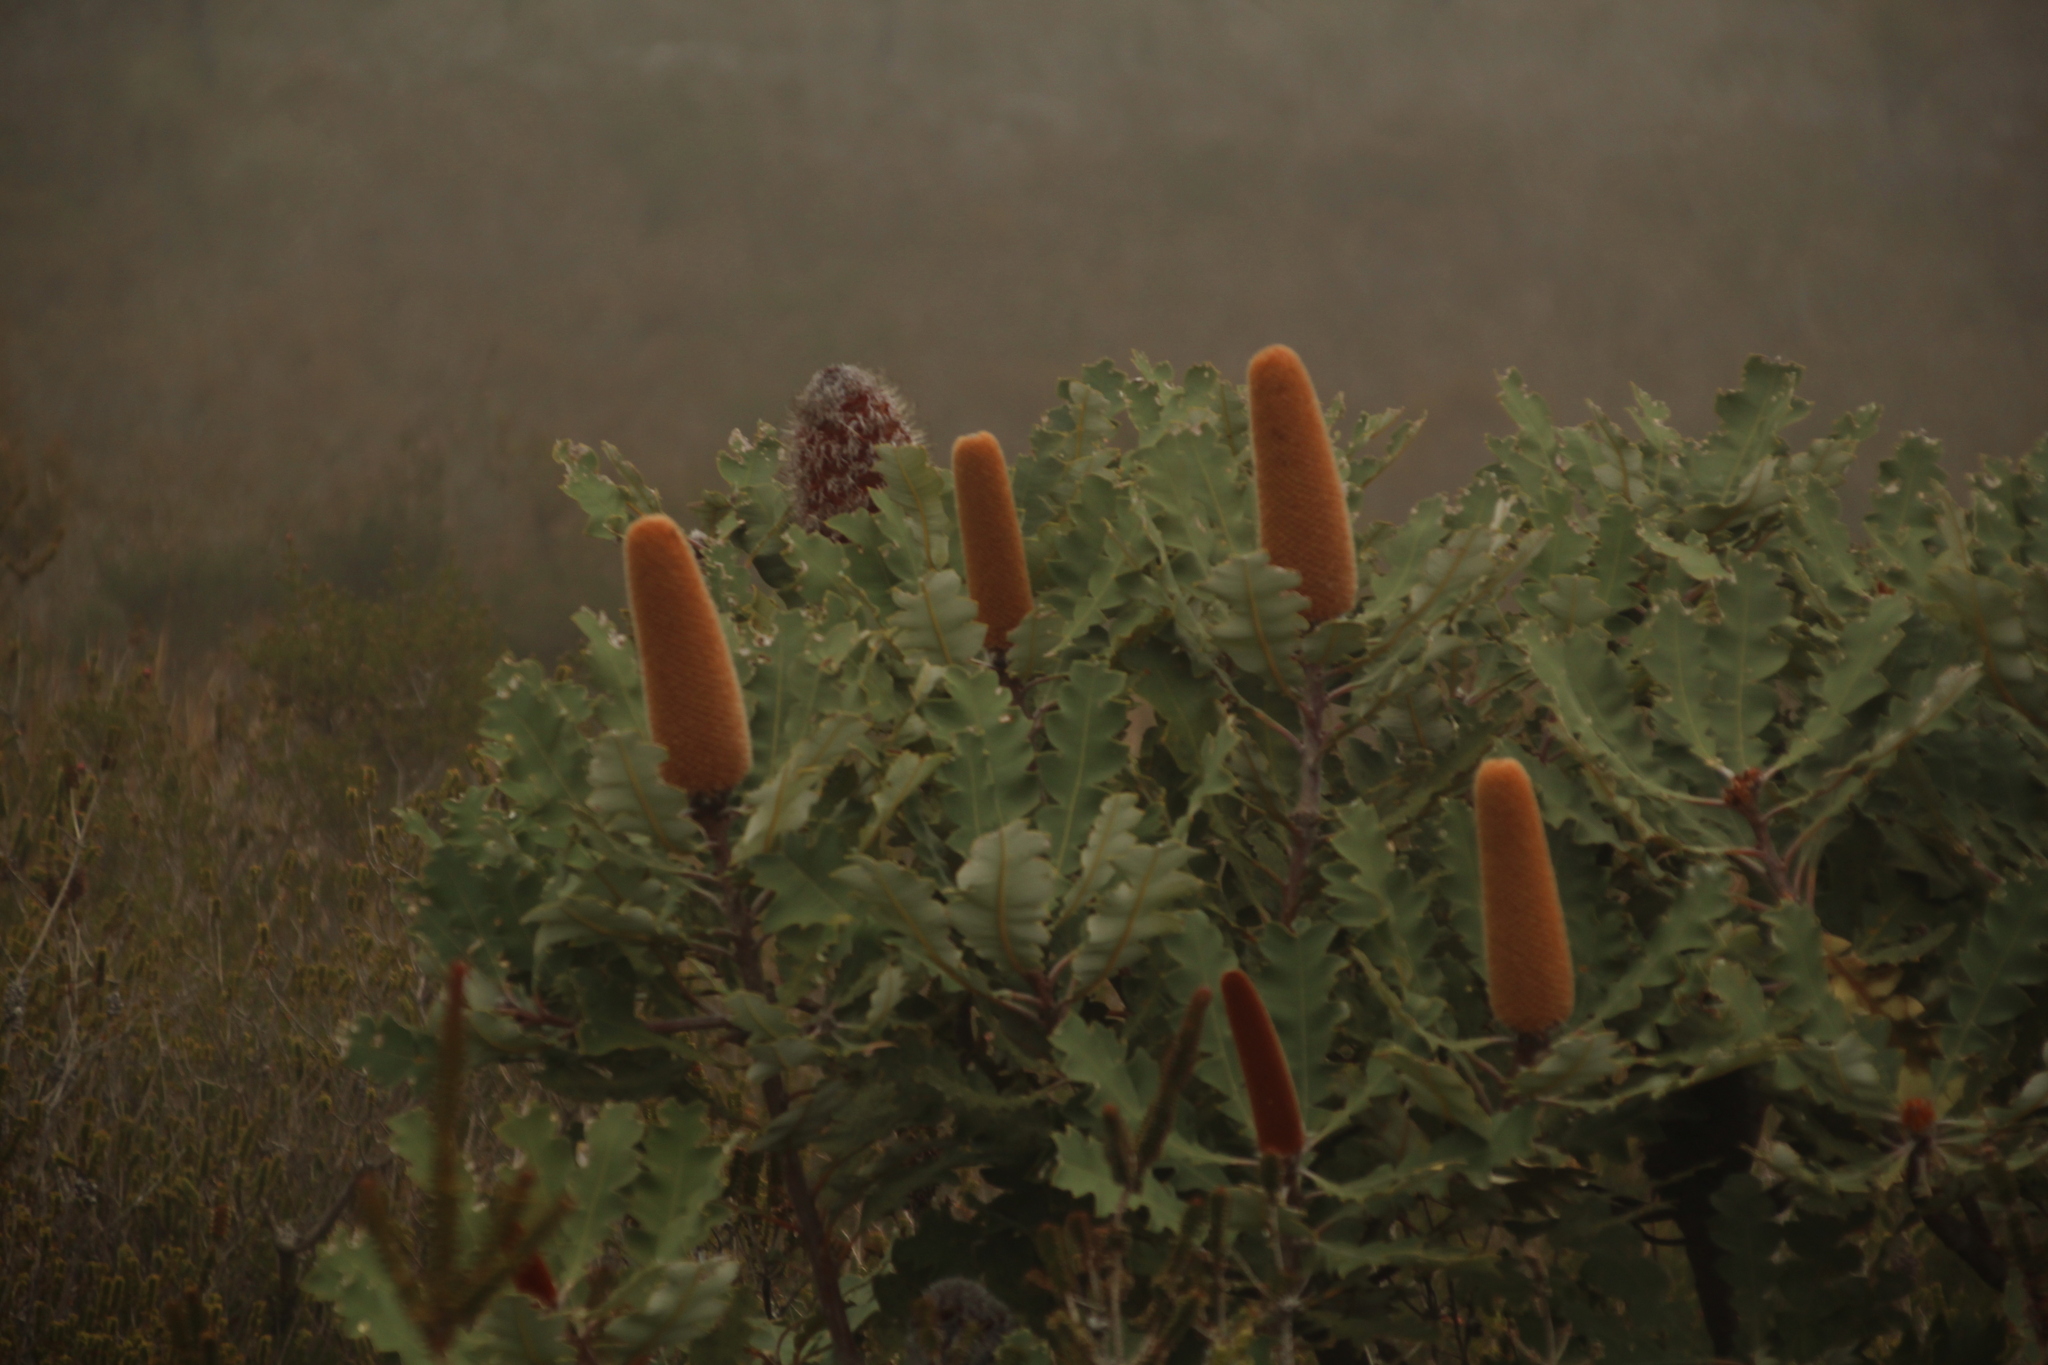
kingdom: Plantae
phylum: Tracheophyta
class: Magnoliopsida
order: Proteales
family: Proteaceae
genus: Banksia
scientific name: Banksia solandri
